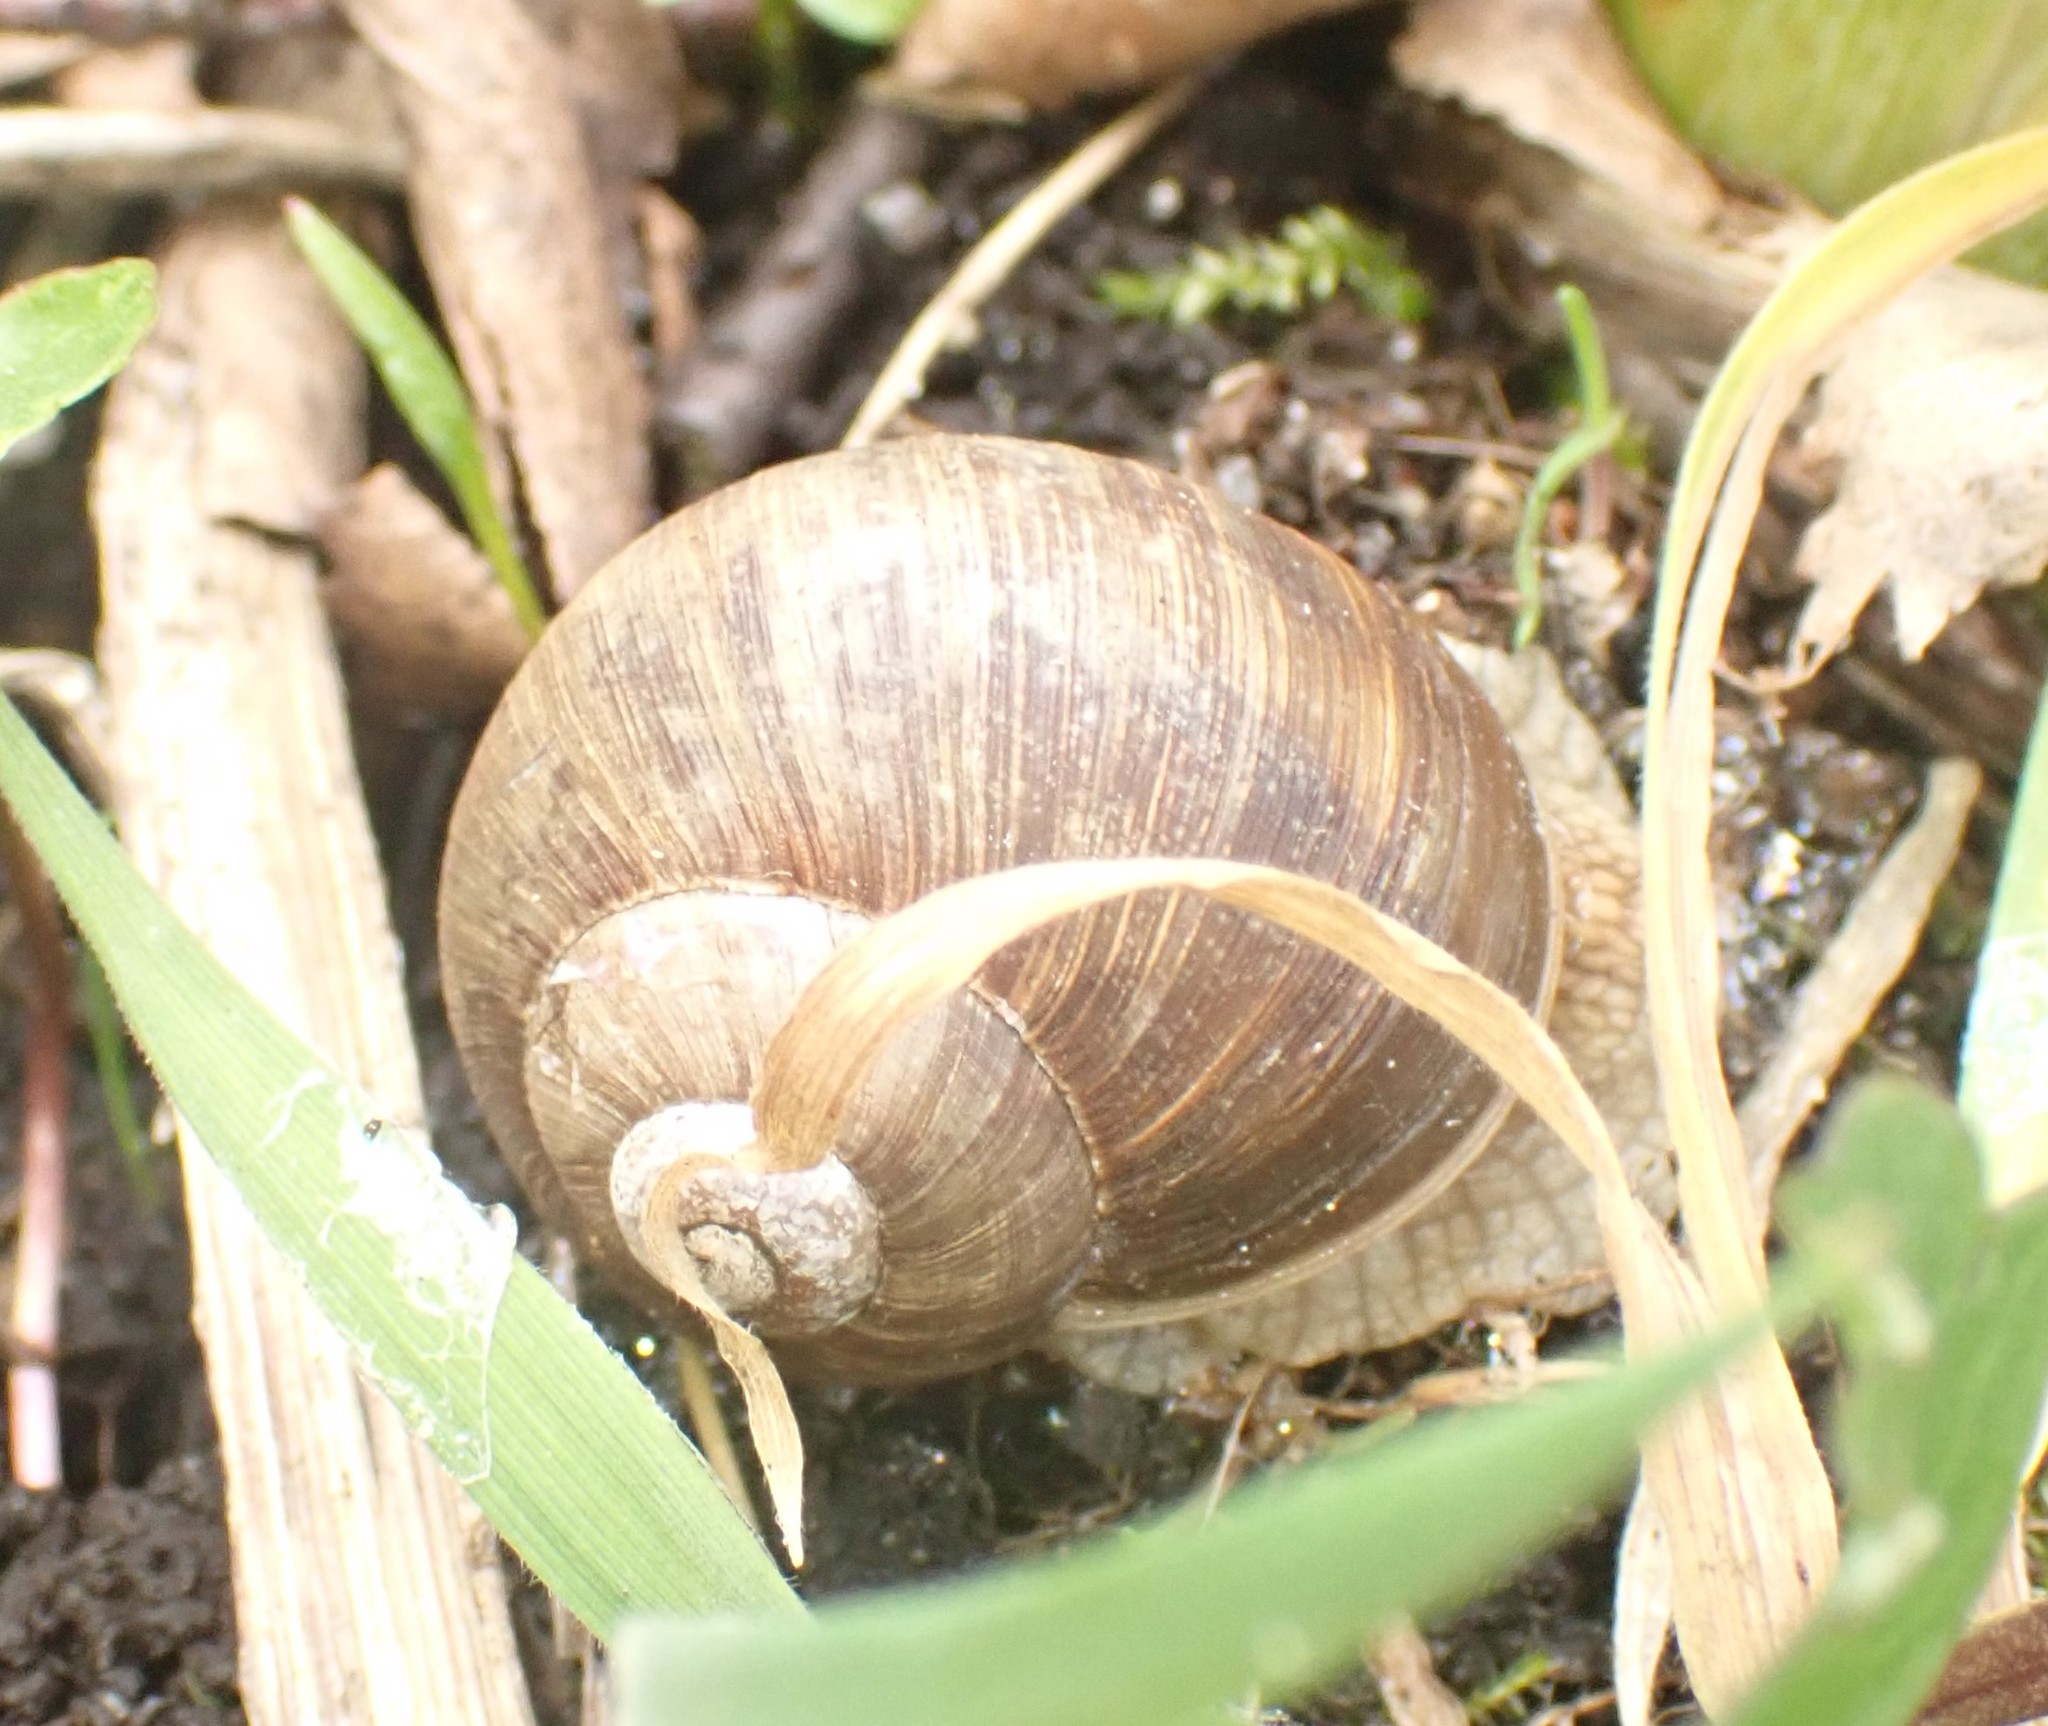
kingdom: Animalia
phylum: Mollusca
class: Gastropoda
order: Stylommatophora
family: Helicidae
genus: Helix
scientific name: Helix pomatia
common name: Roman snail
